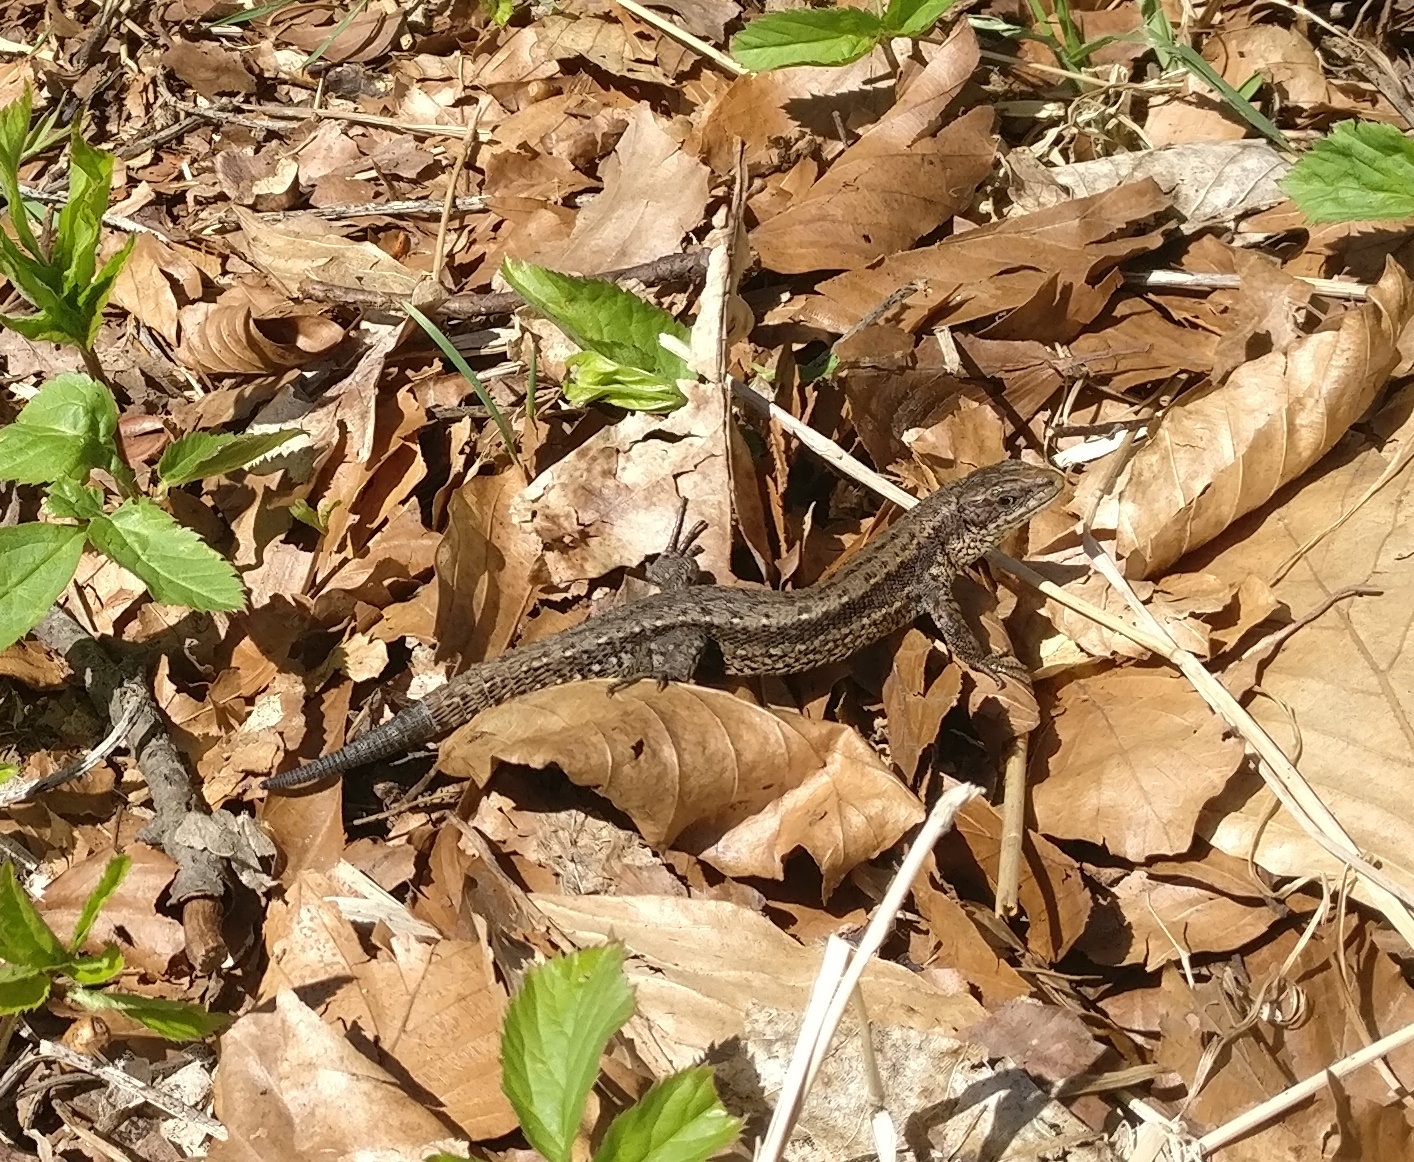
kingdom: Animalia
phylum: Chordata
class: Squamata
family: Lacertidae
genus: Zootoca
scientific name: Zootoca vivipara
